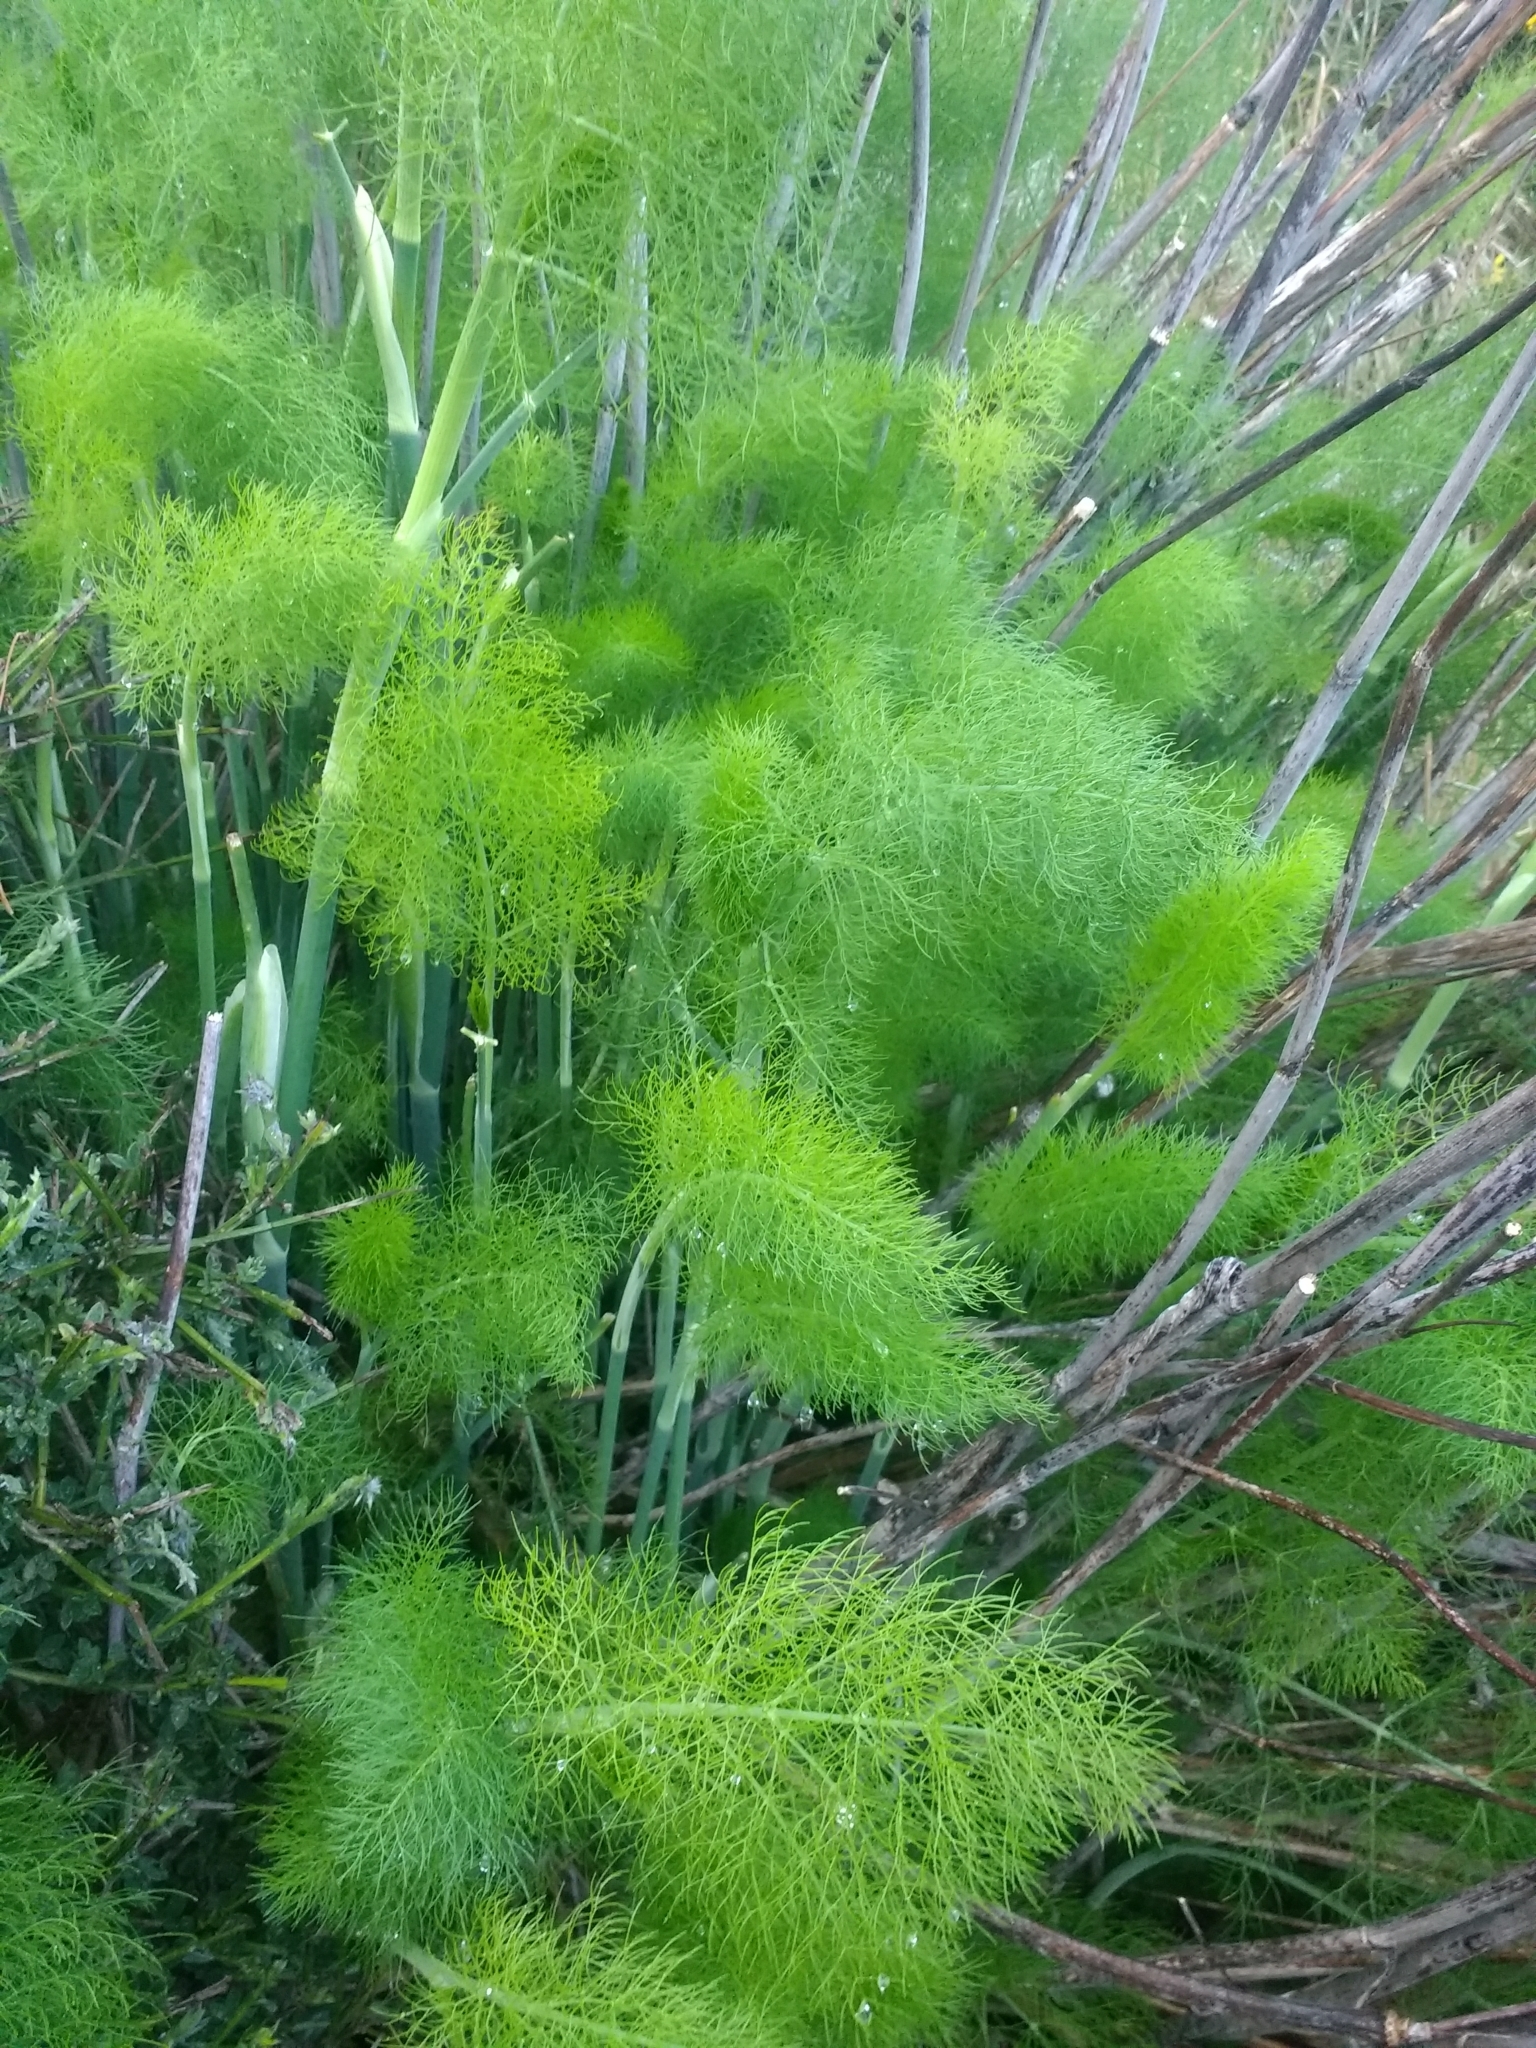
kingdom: Plantae
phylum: Tracheophyta
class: Magnoliopsida
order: Apiales
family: Apiaceae
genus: Foeniculum
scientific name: Foeniculum vulgare
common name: Fennel
